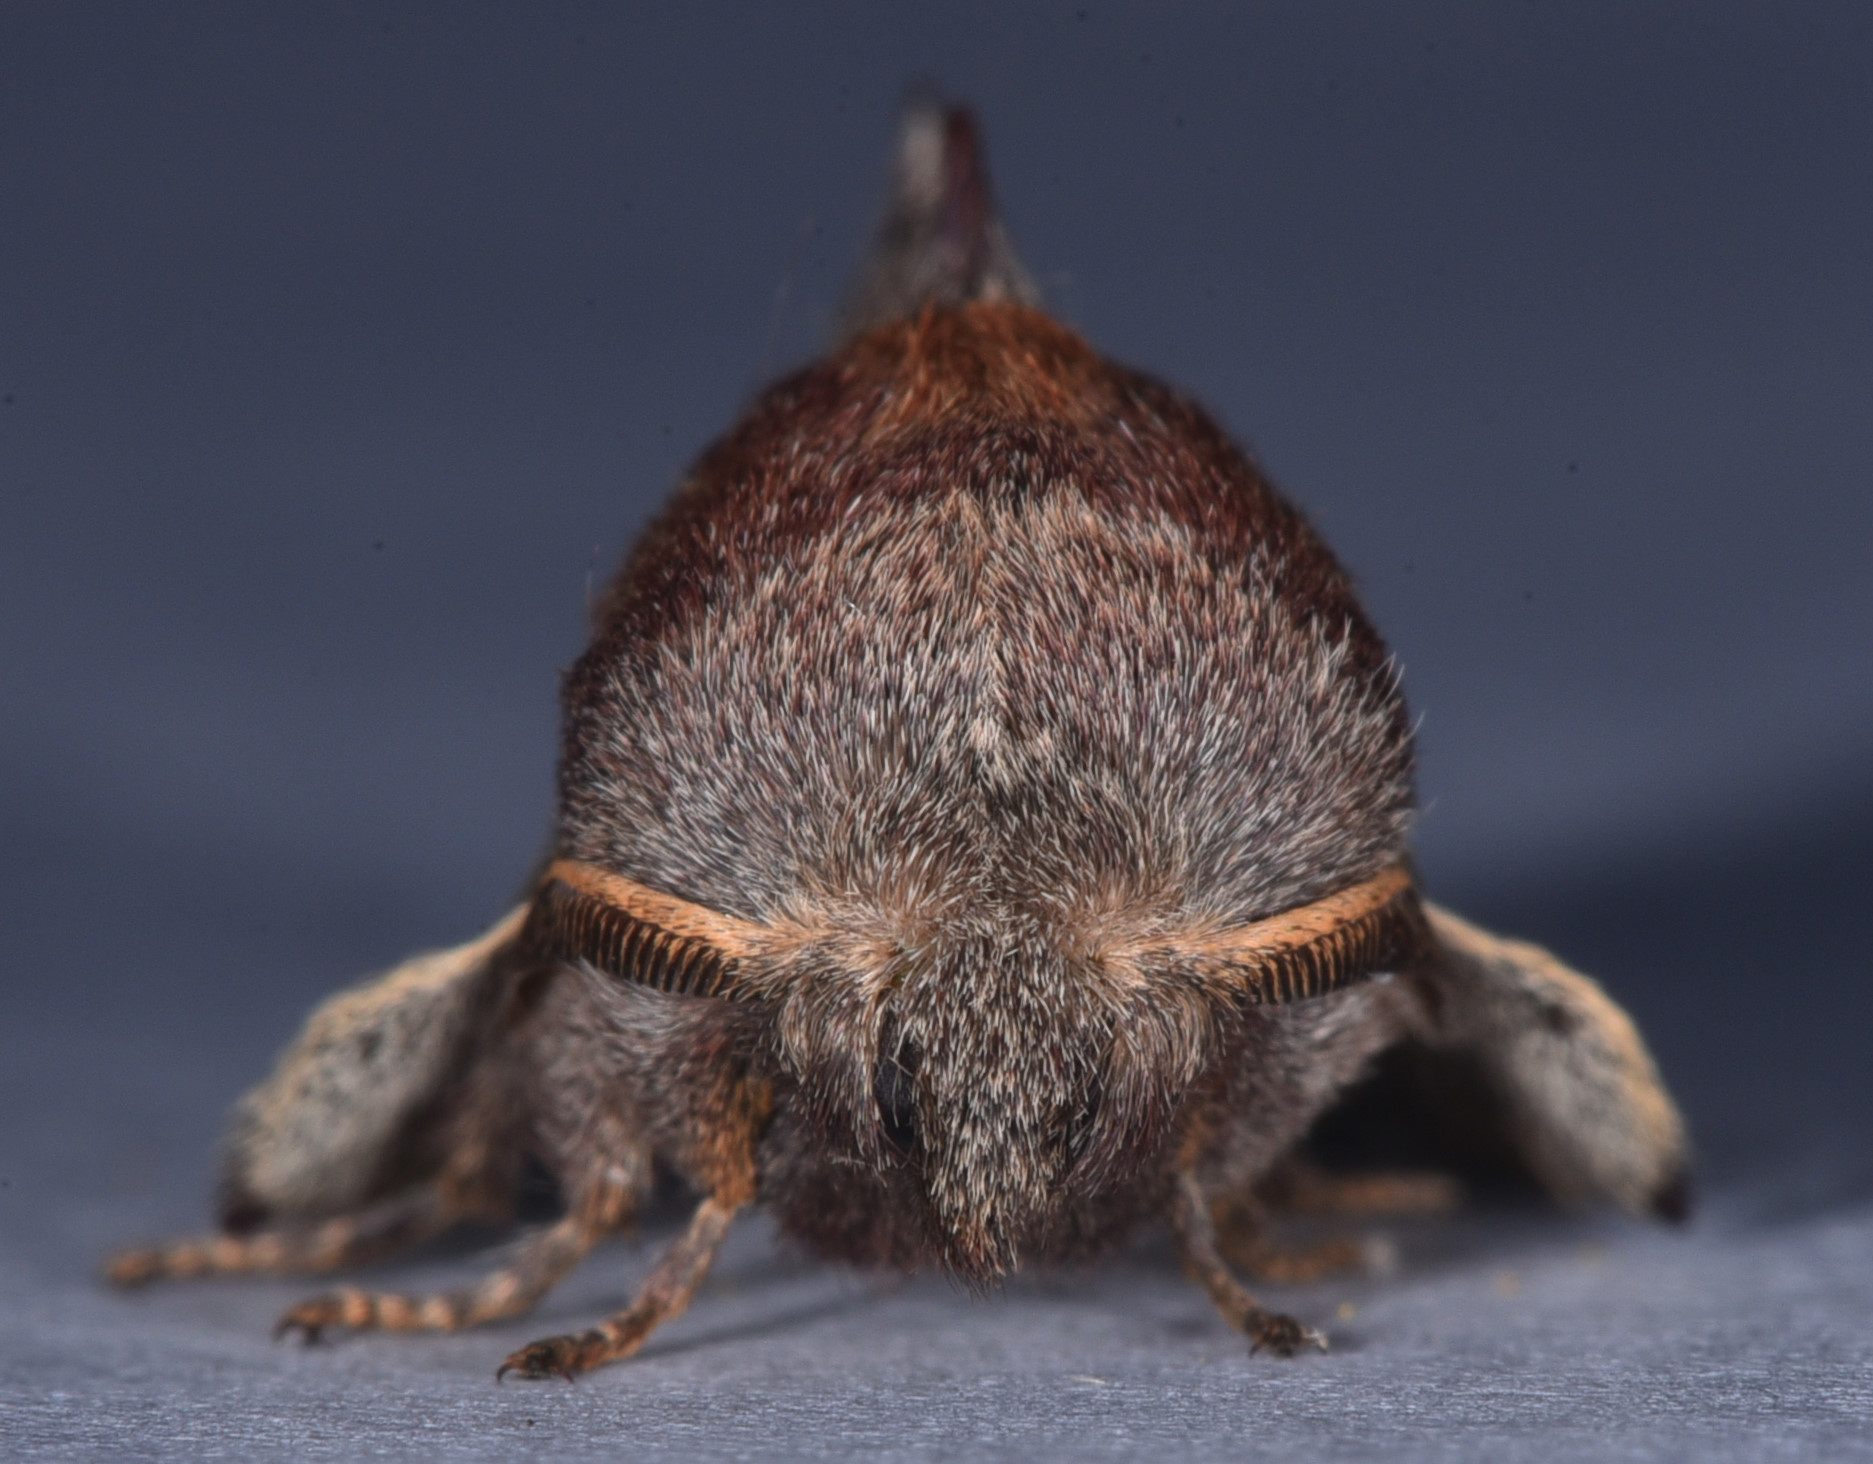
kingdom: Animalia
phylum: Arthropoda
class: Insecta
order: Lepidoptera
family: Lasiocampidae
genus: Phyllodesma
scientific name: Phyllodesma americana
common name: American lappet moth
